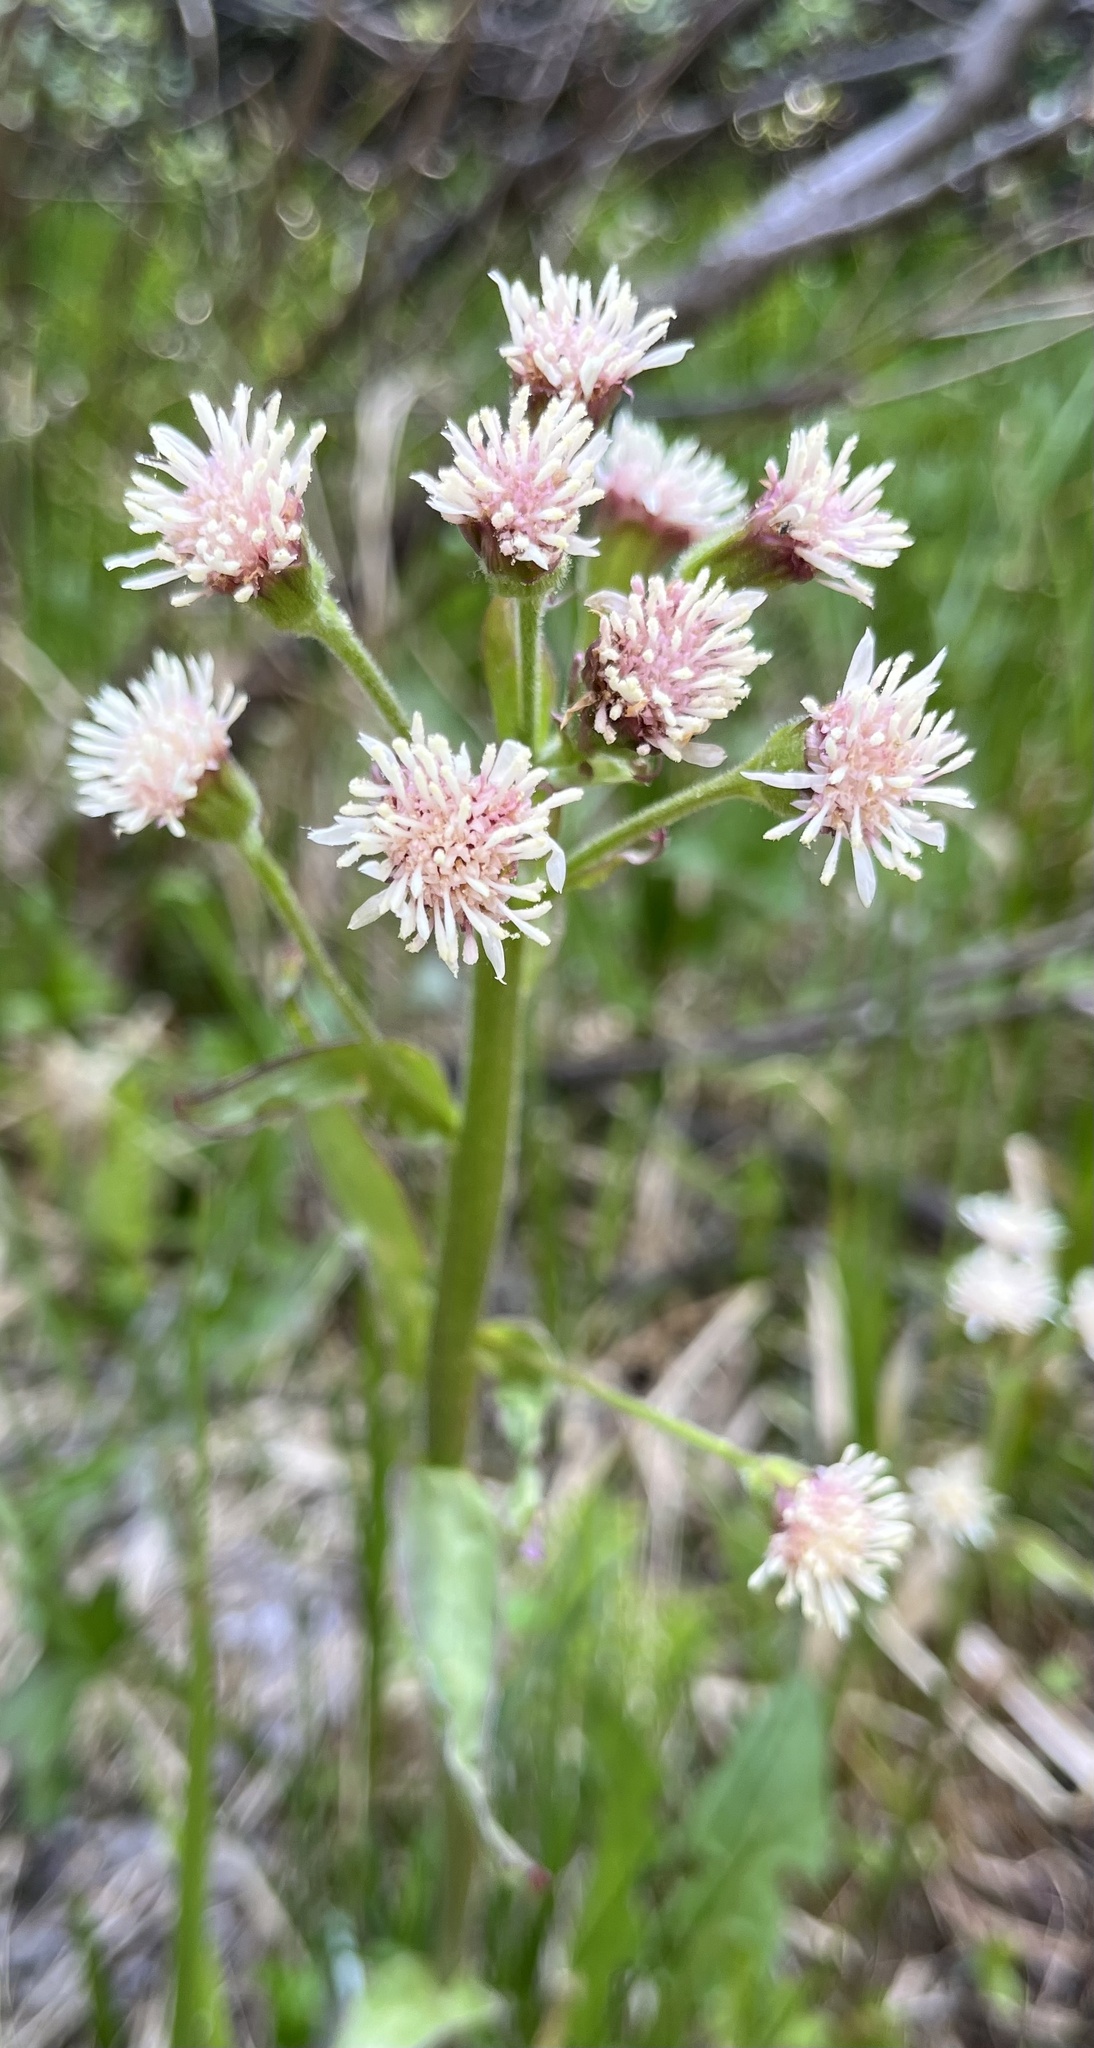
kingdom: Plantae
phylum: Tracheophyta
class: Magnoliopsida
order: Asterales
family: Asteraceae
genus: Petasites
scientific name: Petasites frigidus
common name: Arctic butterbur
